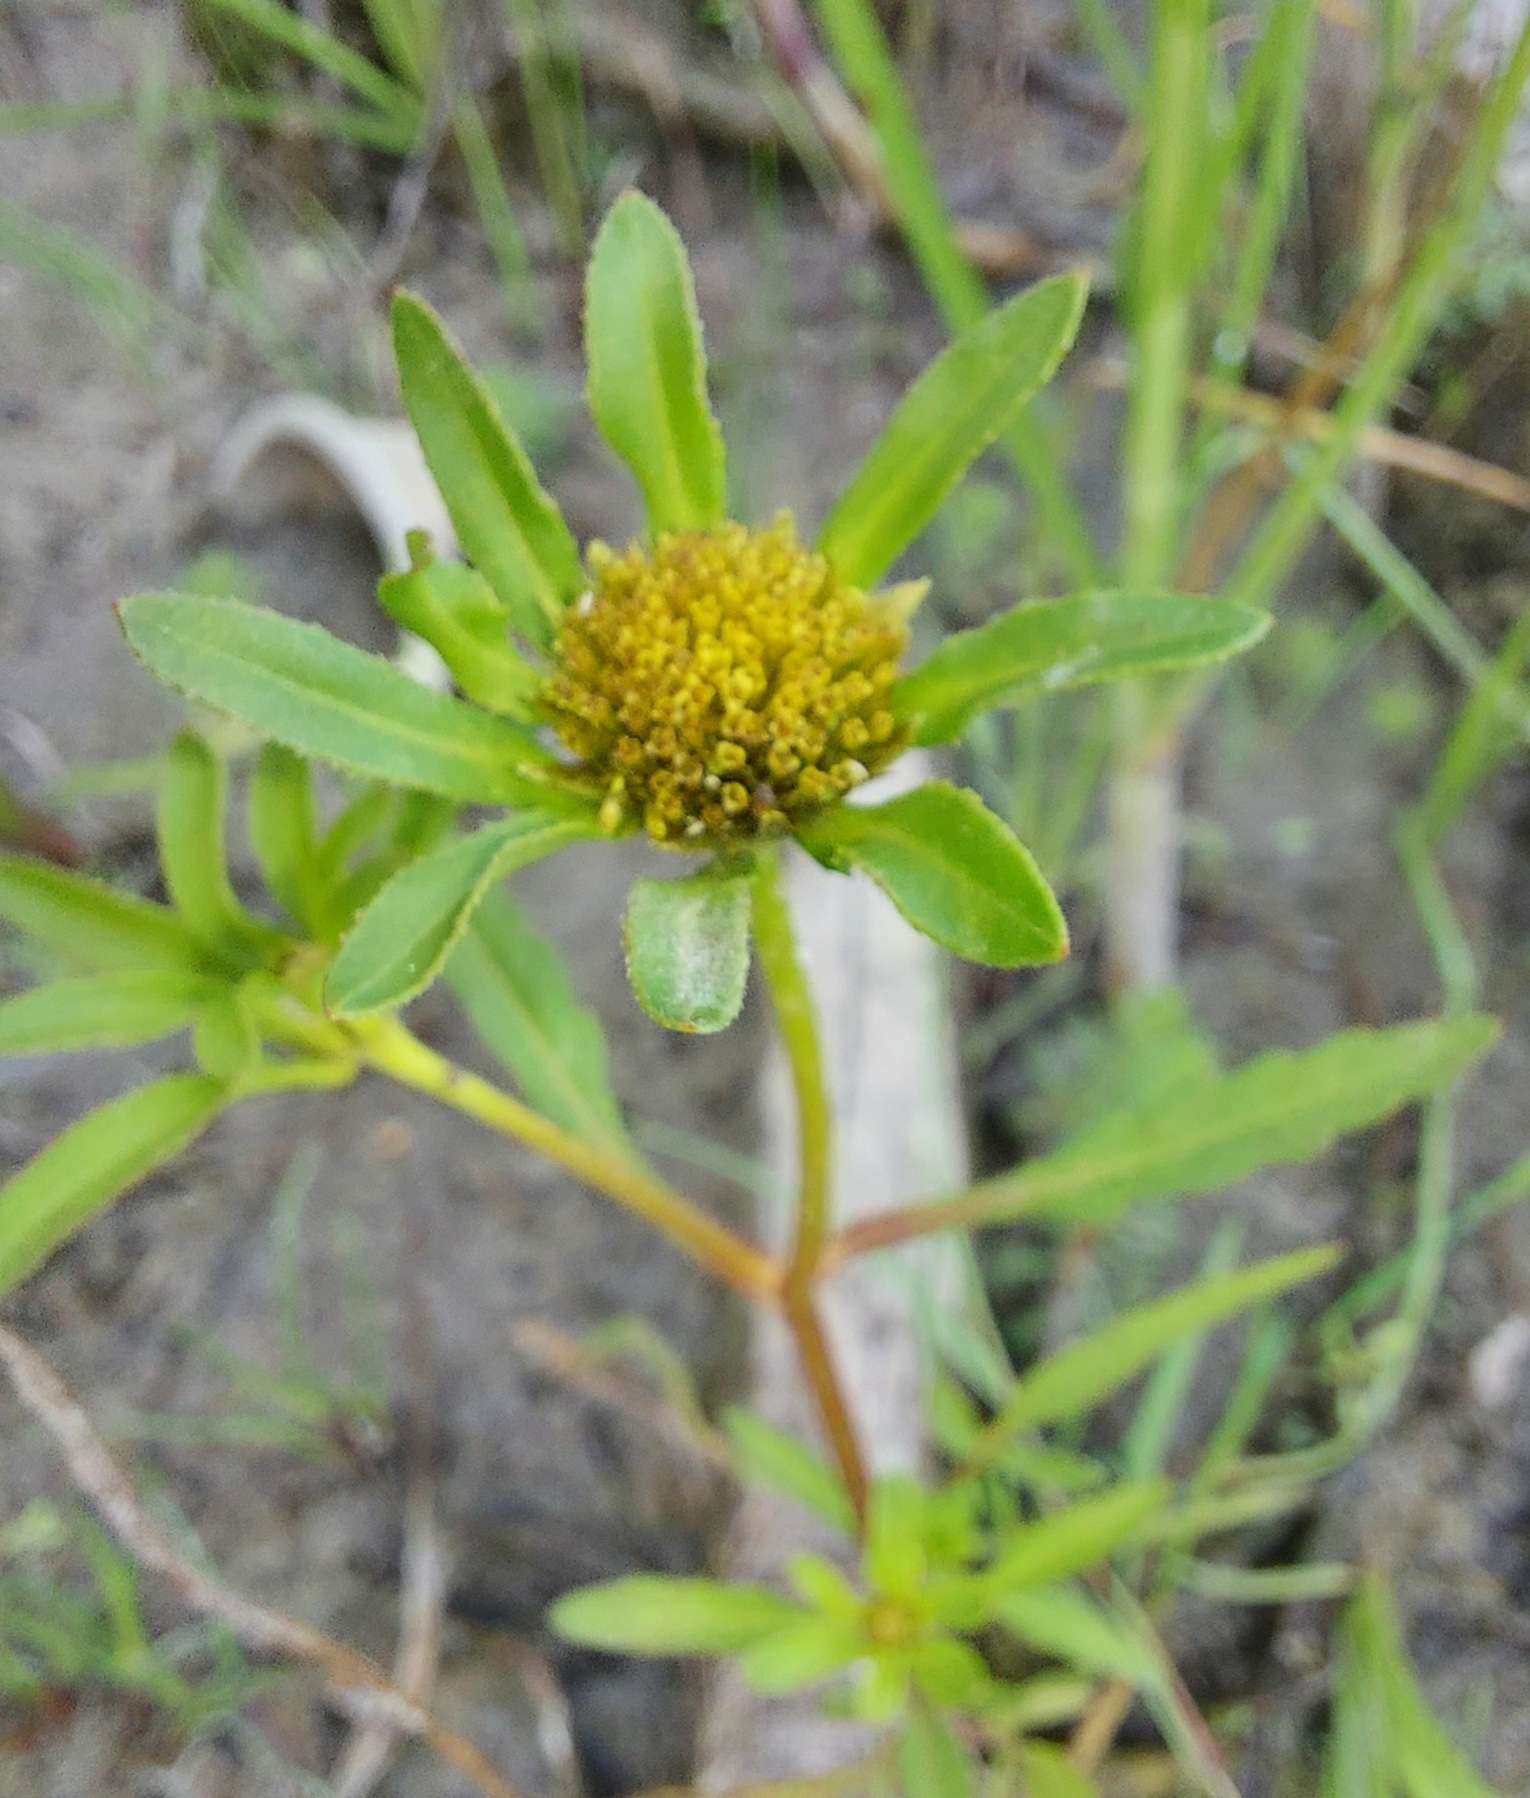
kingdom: Plantae
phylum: Tracheophyta
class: Magnoliopsida
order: Asterales
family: Asteraceae
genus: Bidens
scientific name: Bidens radiata
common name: Radiating bur-marigold
